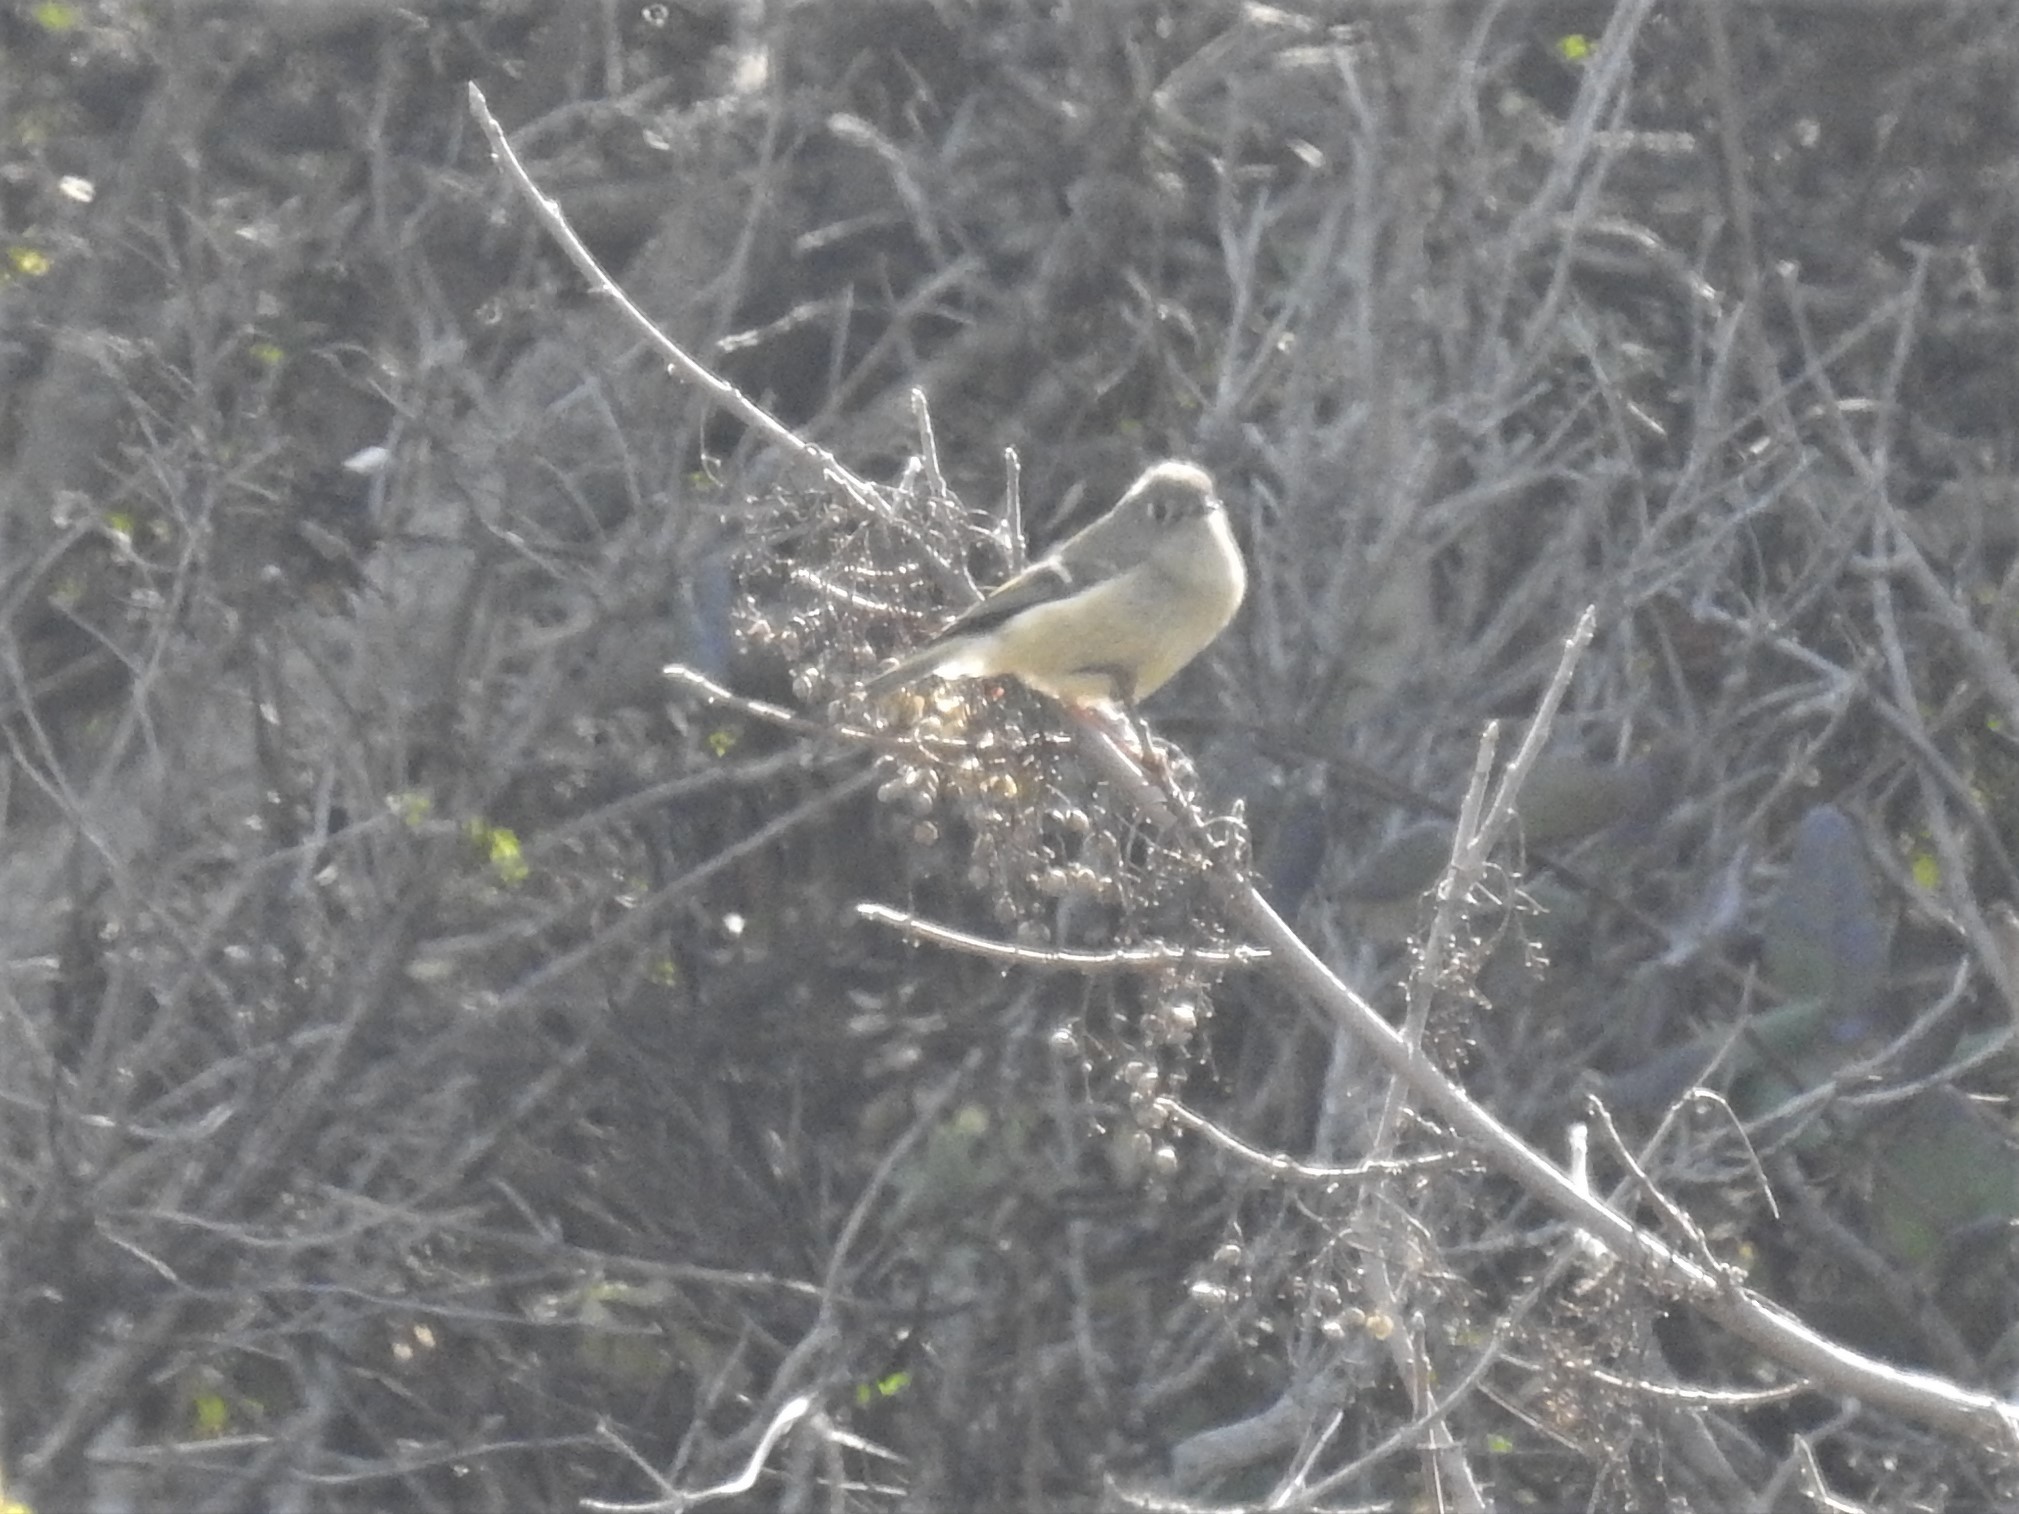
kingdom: Animalia
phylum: Chordata
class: Aves
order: Passeriformes
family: Regulidae
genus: Regulus
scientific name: Regulus calendula
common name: Ruby-crowned kinglet
